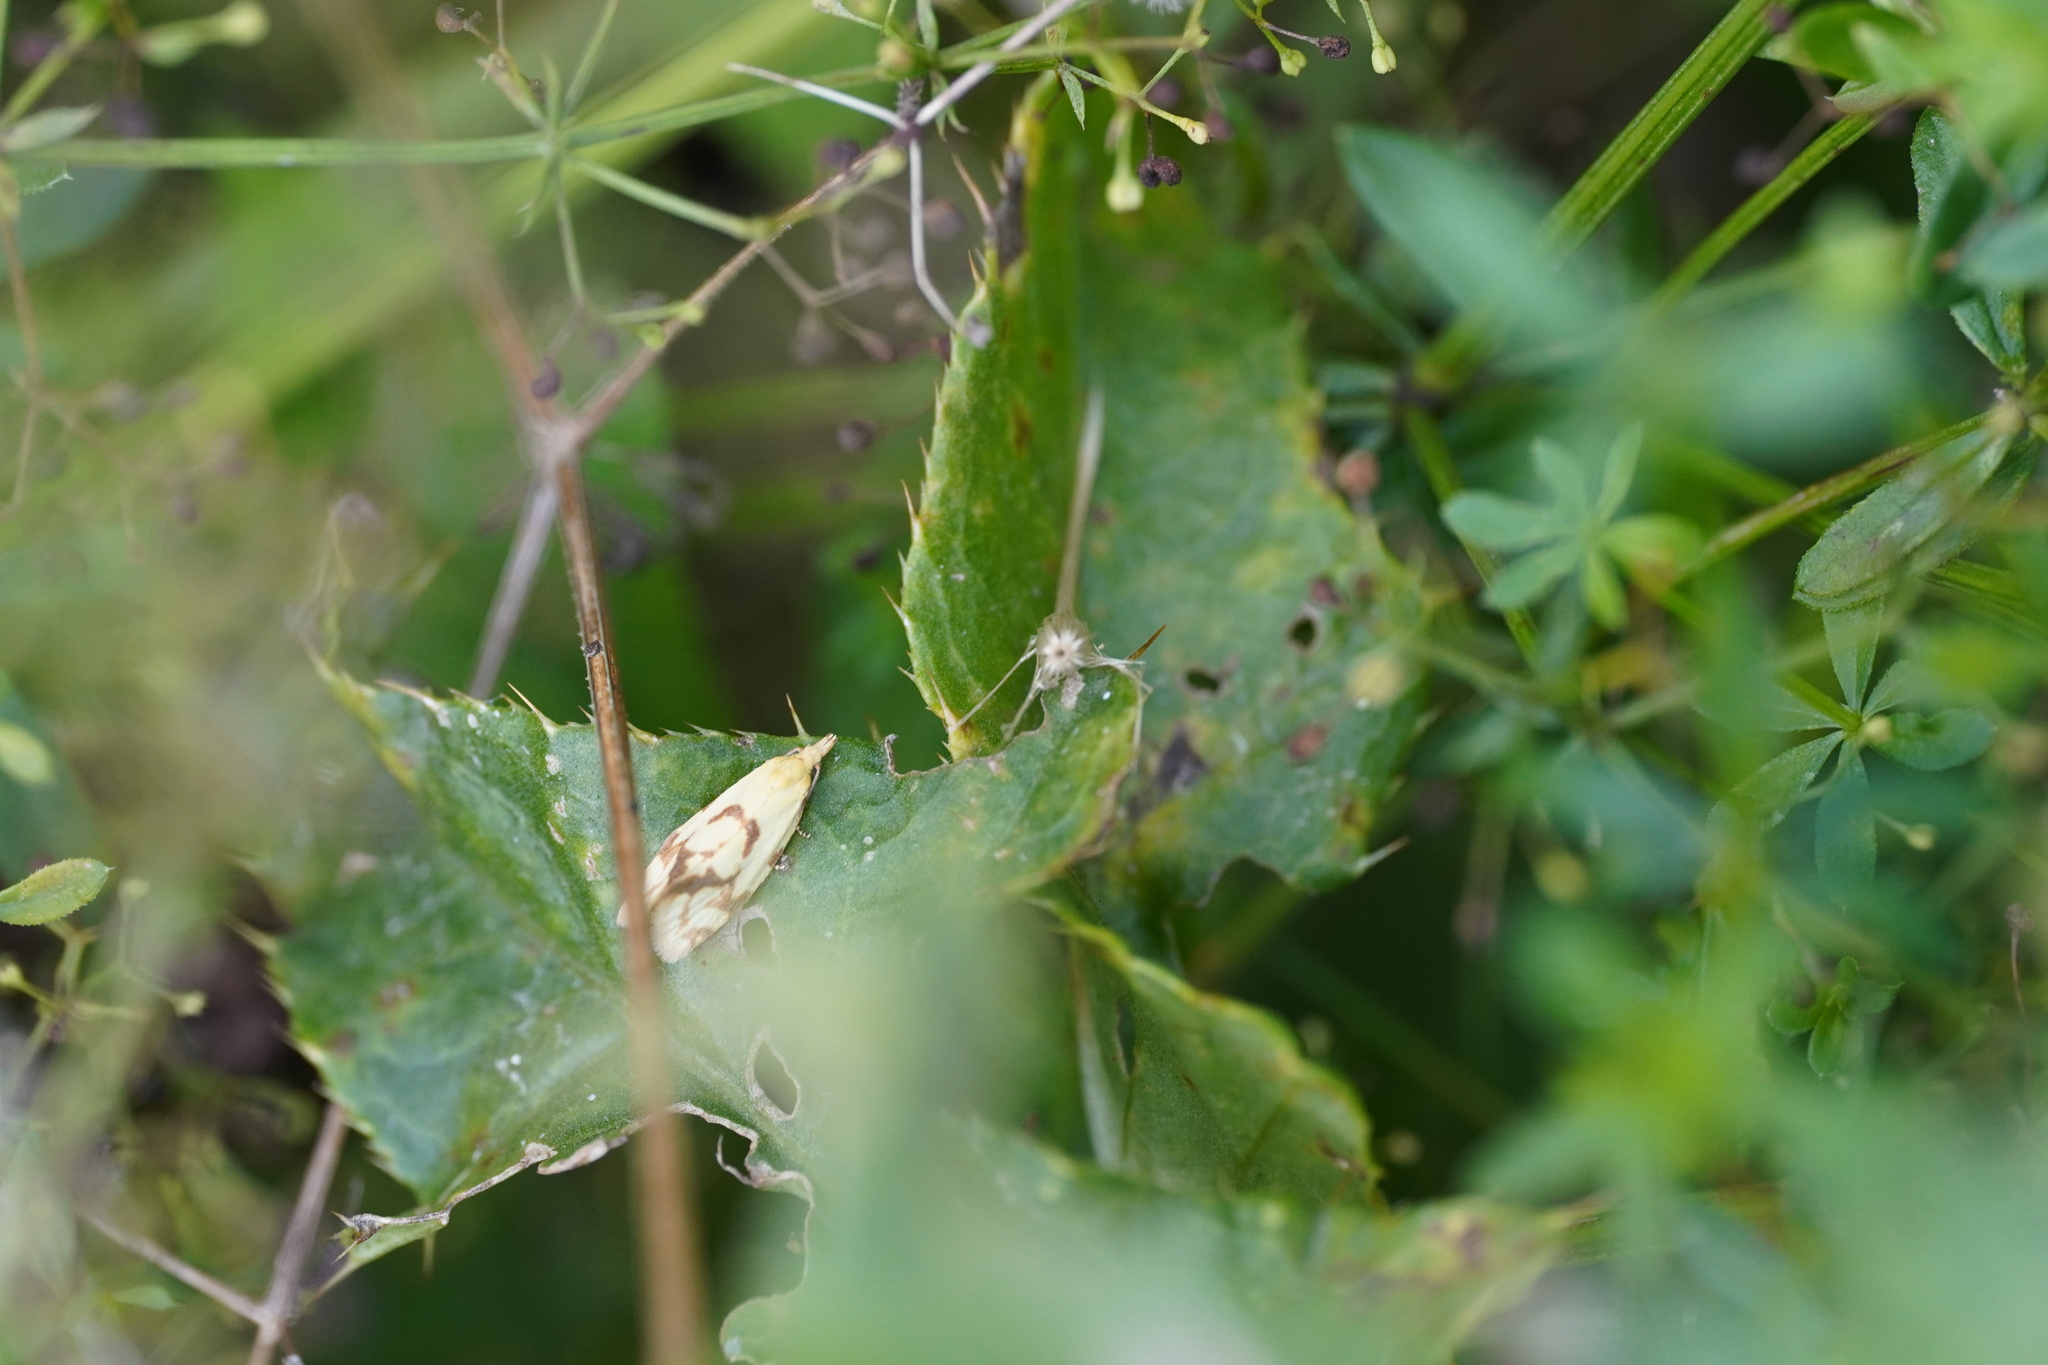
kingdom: Animalia
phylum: Arthropoda
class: Insecta
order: Lepidoptera
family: Tortricidae
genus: Agapeta
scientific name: Agapeta hamana
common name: Common yellow conch
